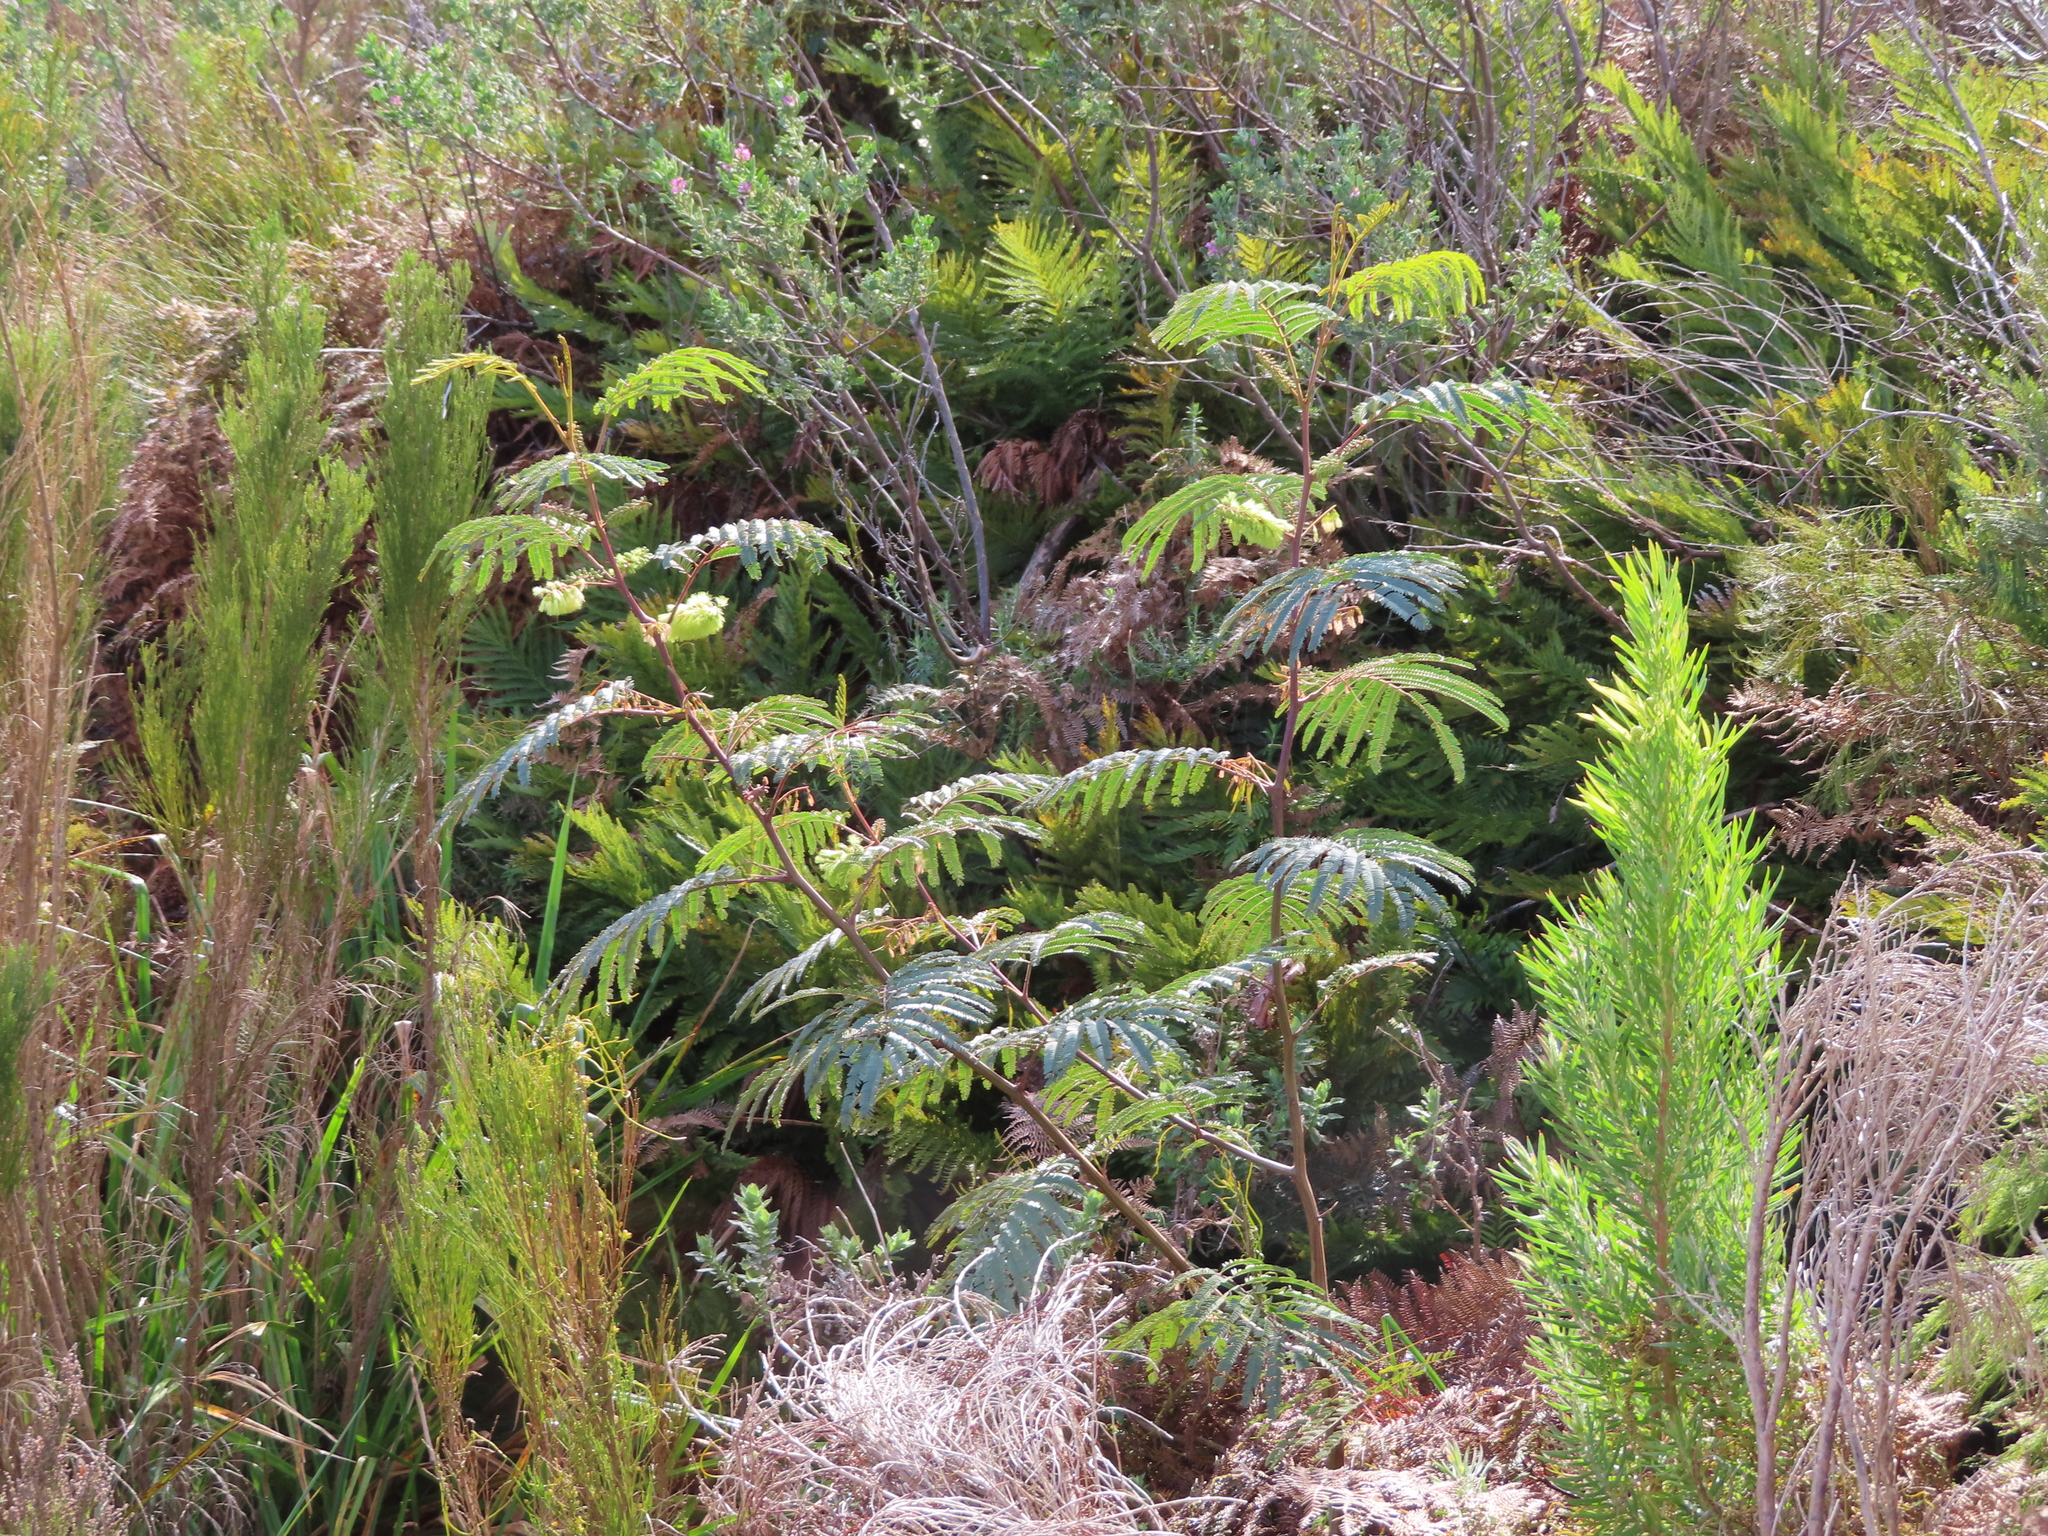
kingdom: Plantae
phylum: Tracheophyta
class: Magnoliopsida
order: Fabales
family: Fabaceae
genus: Paraserianthes
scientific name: Paraserianthes lophantha
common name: Plume albizia
